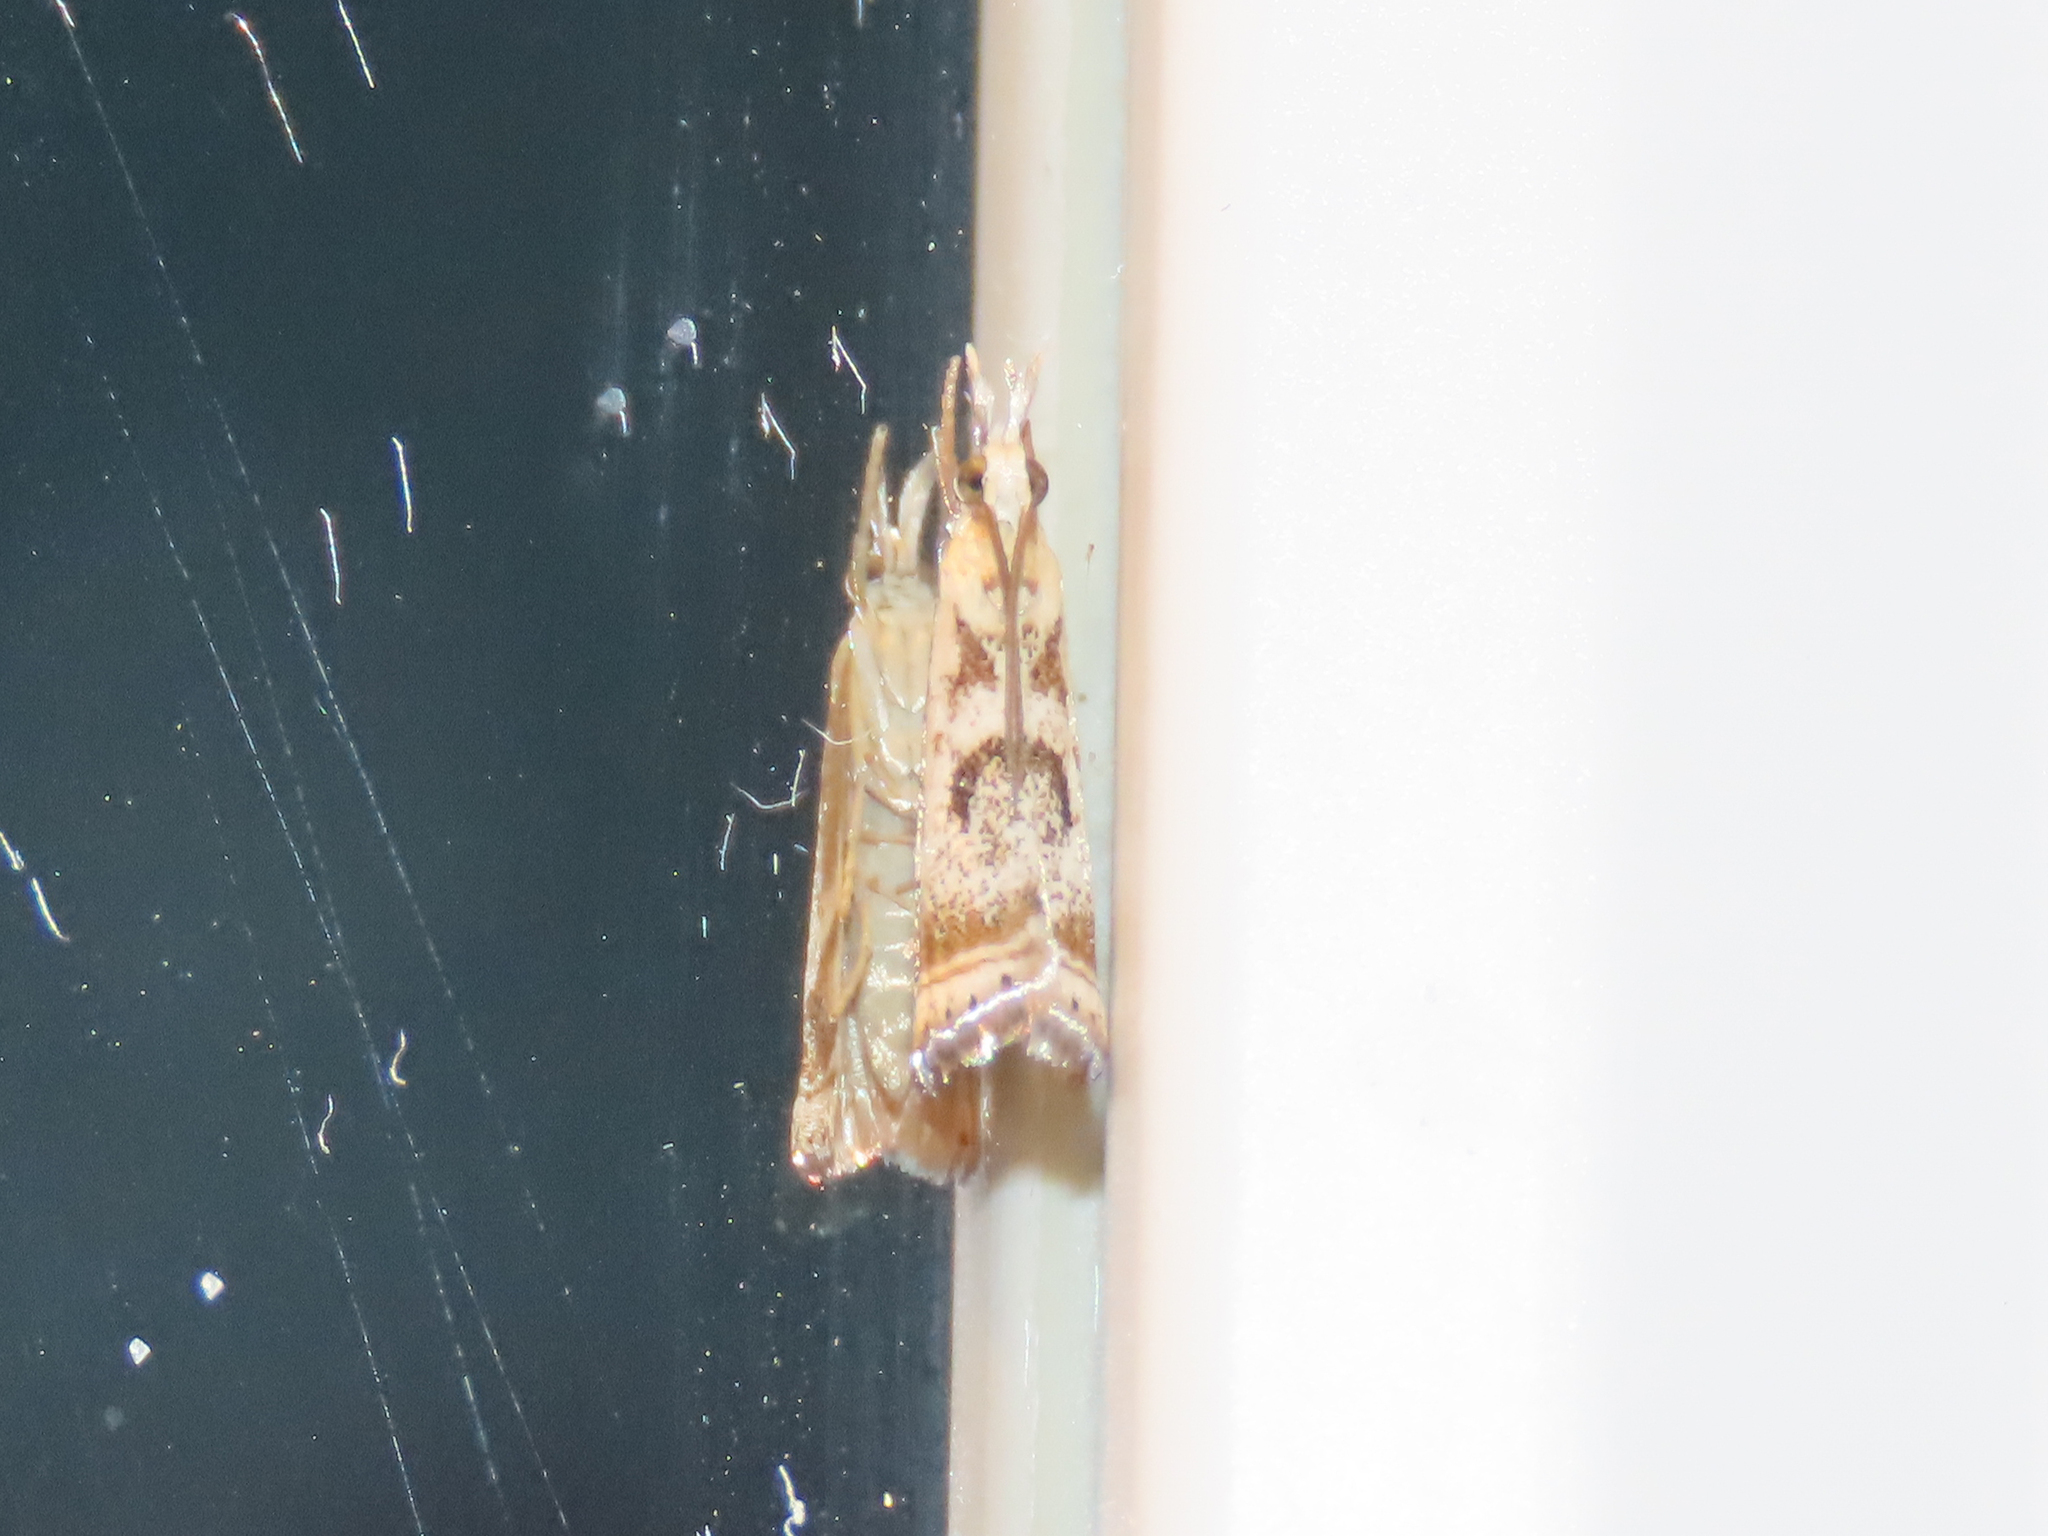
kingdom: Animalia
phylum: Arthropoda
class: Insecta
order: Lepidoptera
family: Crambidae
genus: Microcrambus
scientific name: Microcrambus elegans
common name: Elegant grass-veneer
